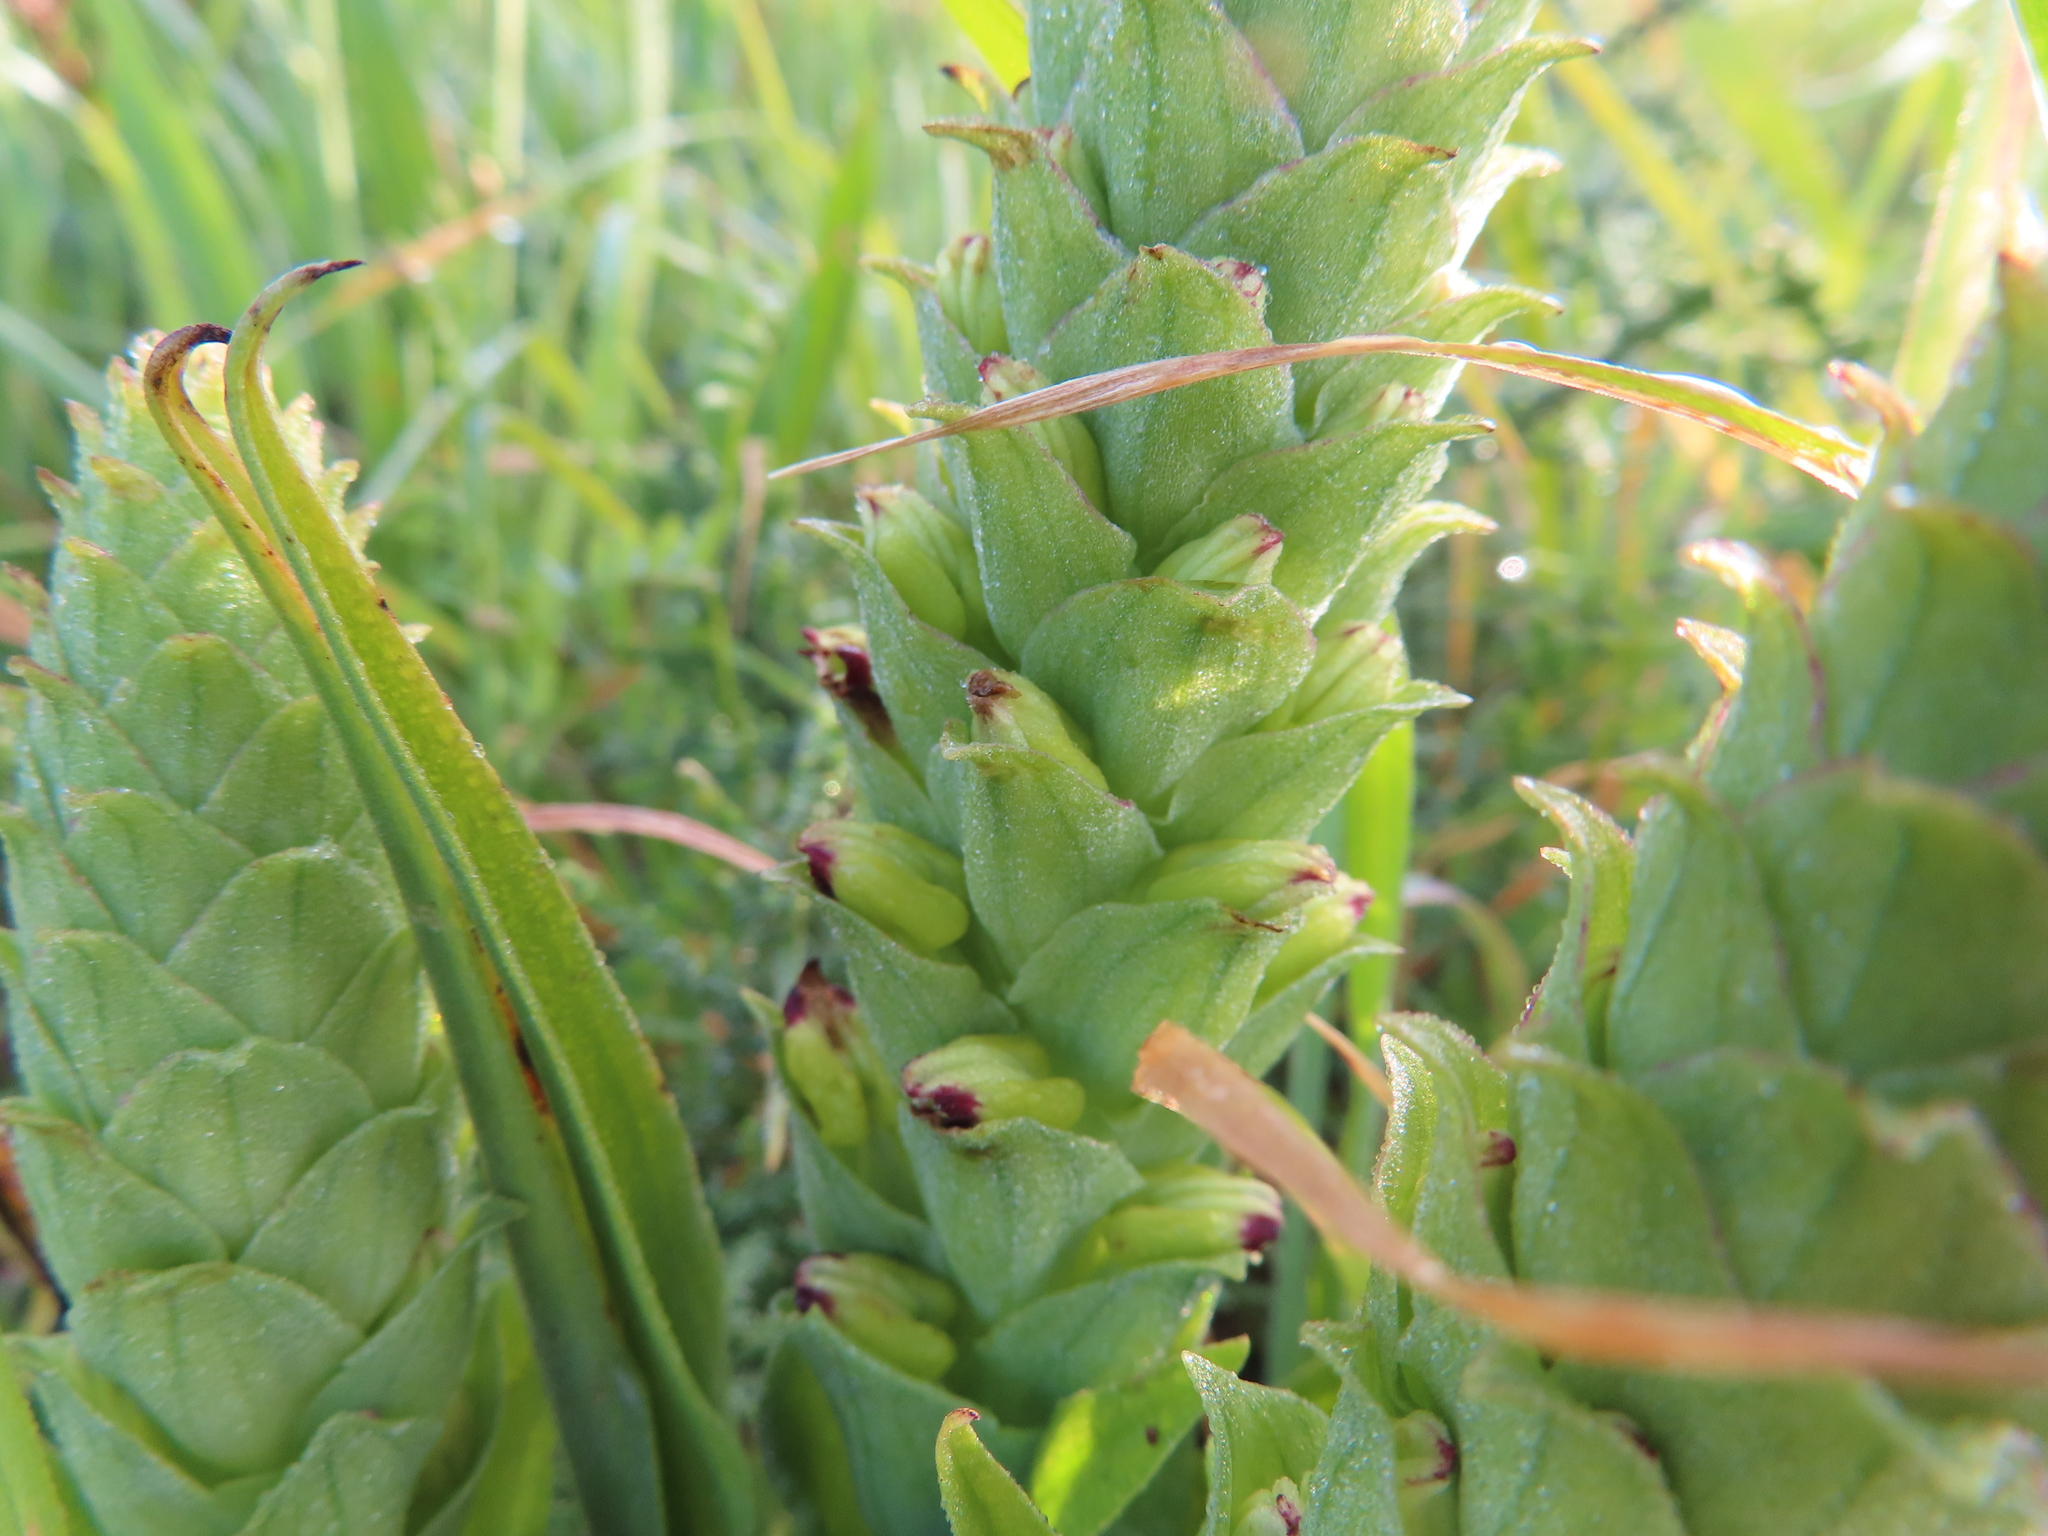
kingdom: Plantae
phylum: Tracheophyta
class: Liliopsida
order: Asparagales
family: Orchidaceae
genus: Corycium
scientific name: Corycium orobanchoides
